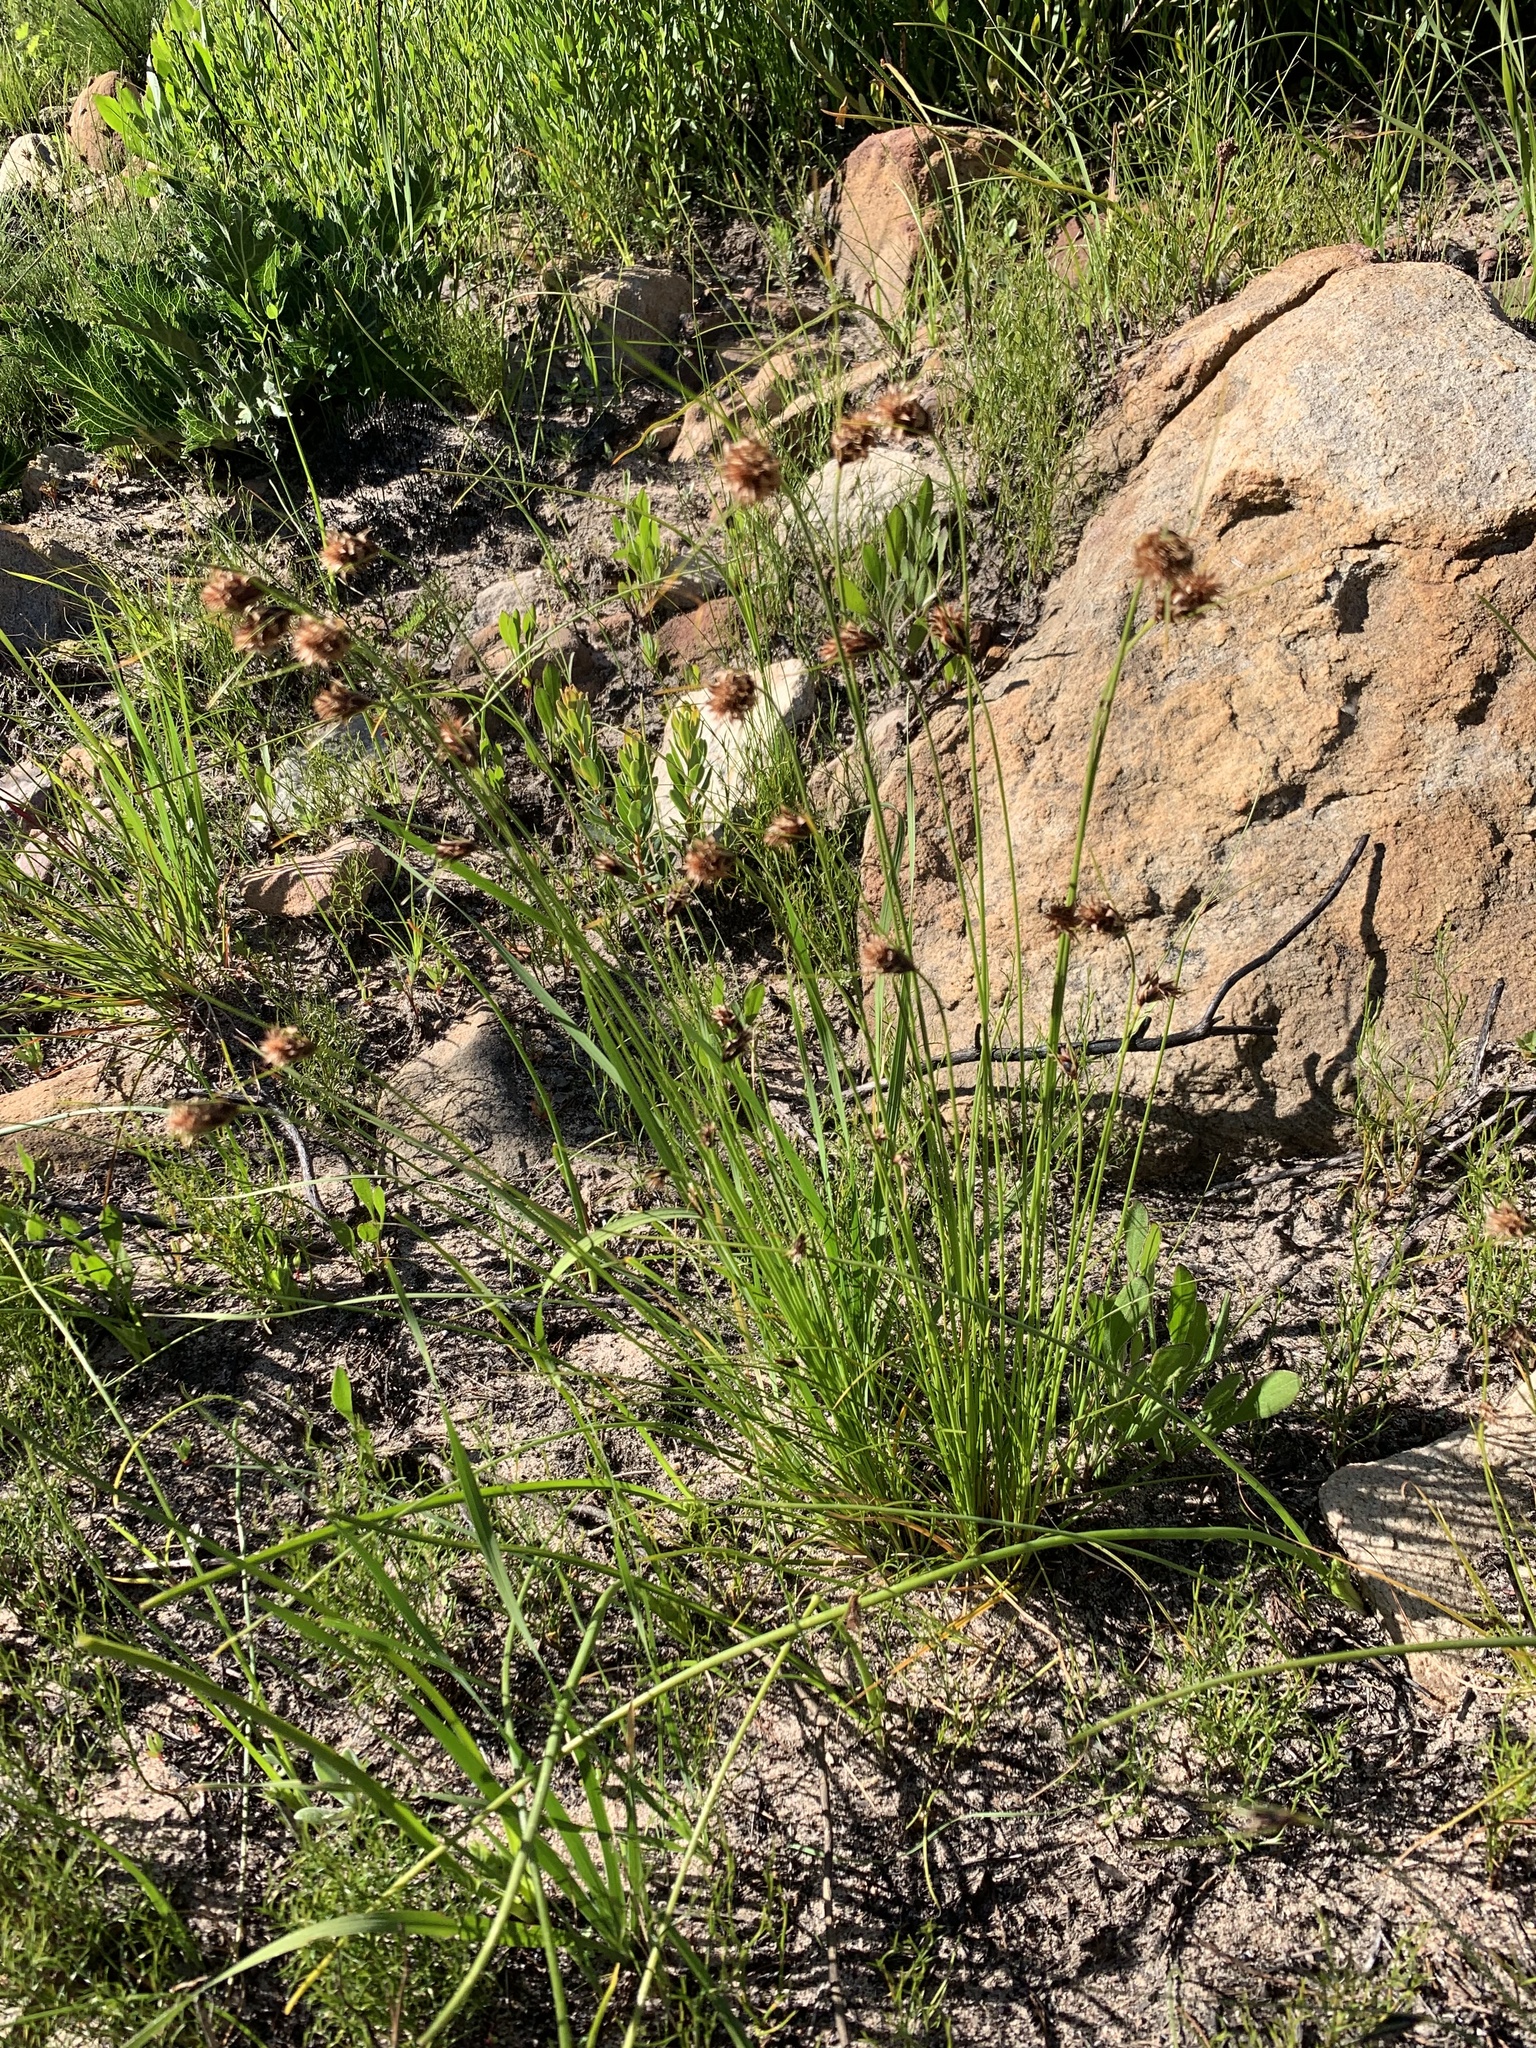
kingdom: Plantae
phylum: Tracheophyta
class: Liliopsida
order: Poales
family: Cyperaceae
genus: Ficinia
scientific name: Ficinia nigrescens
